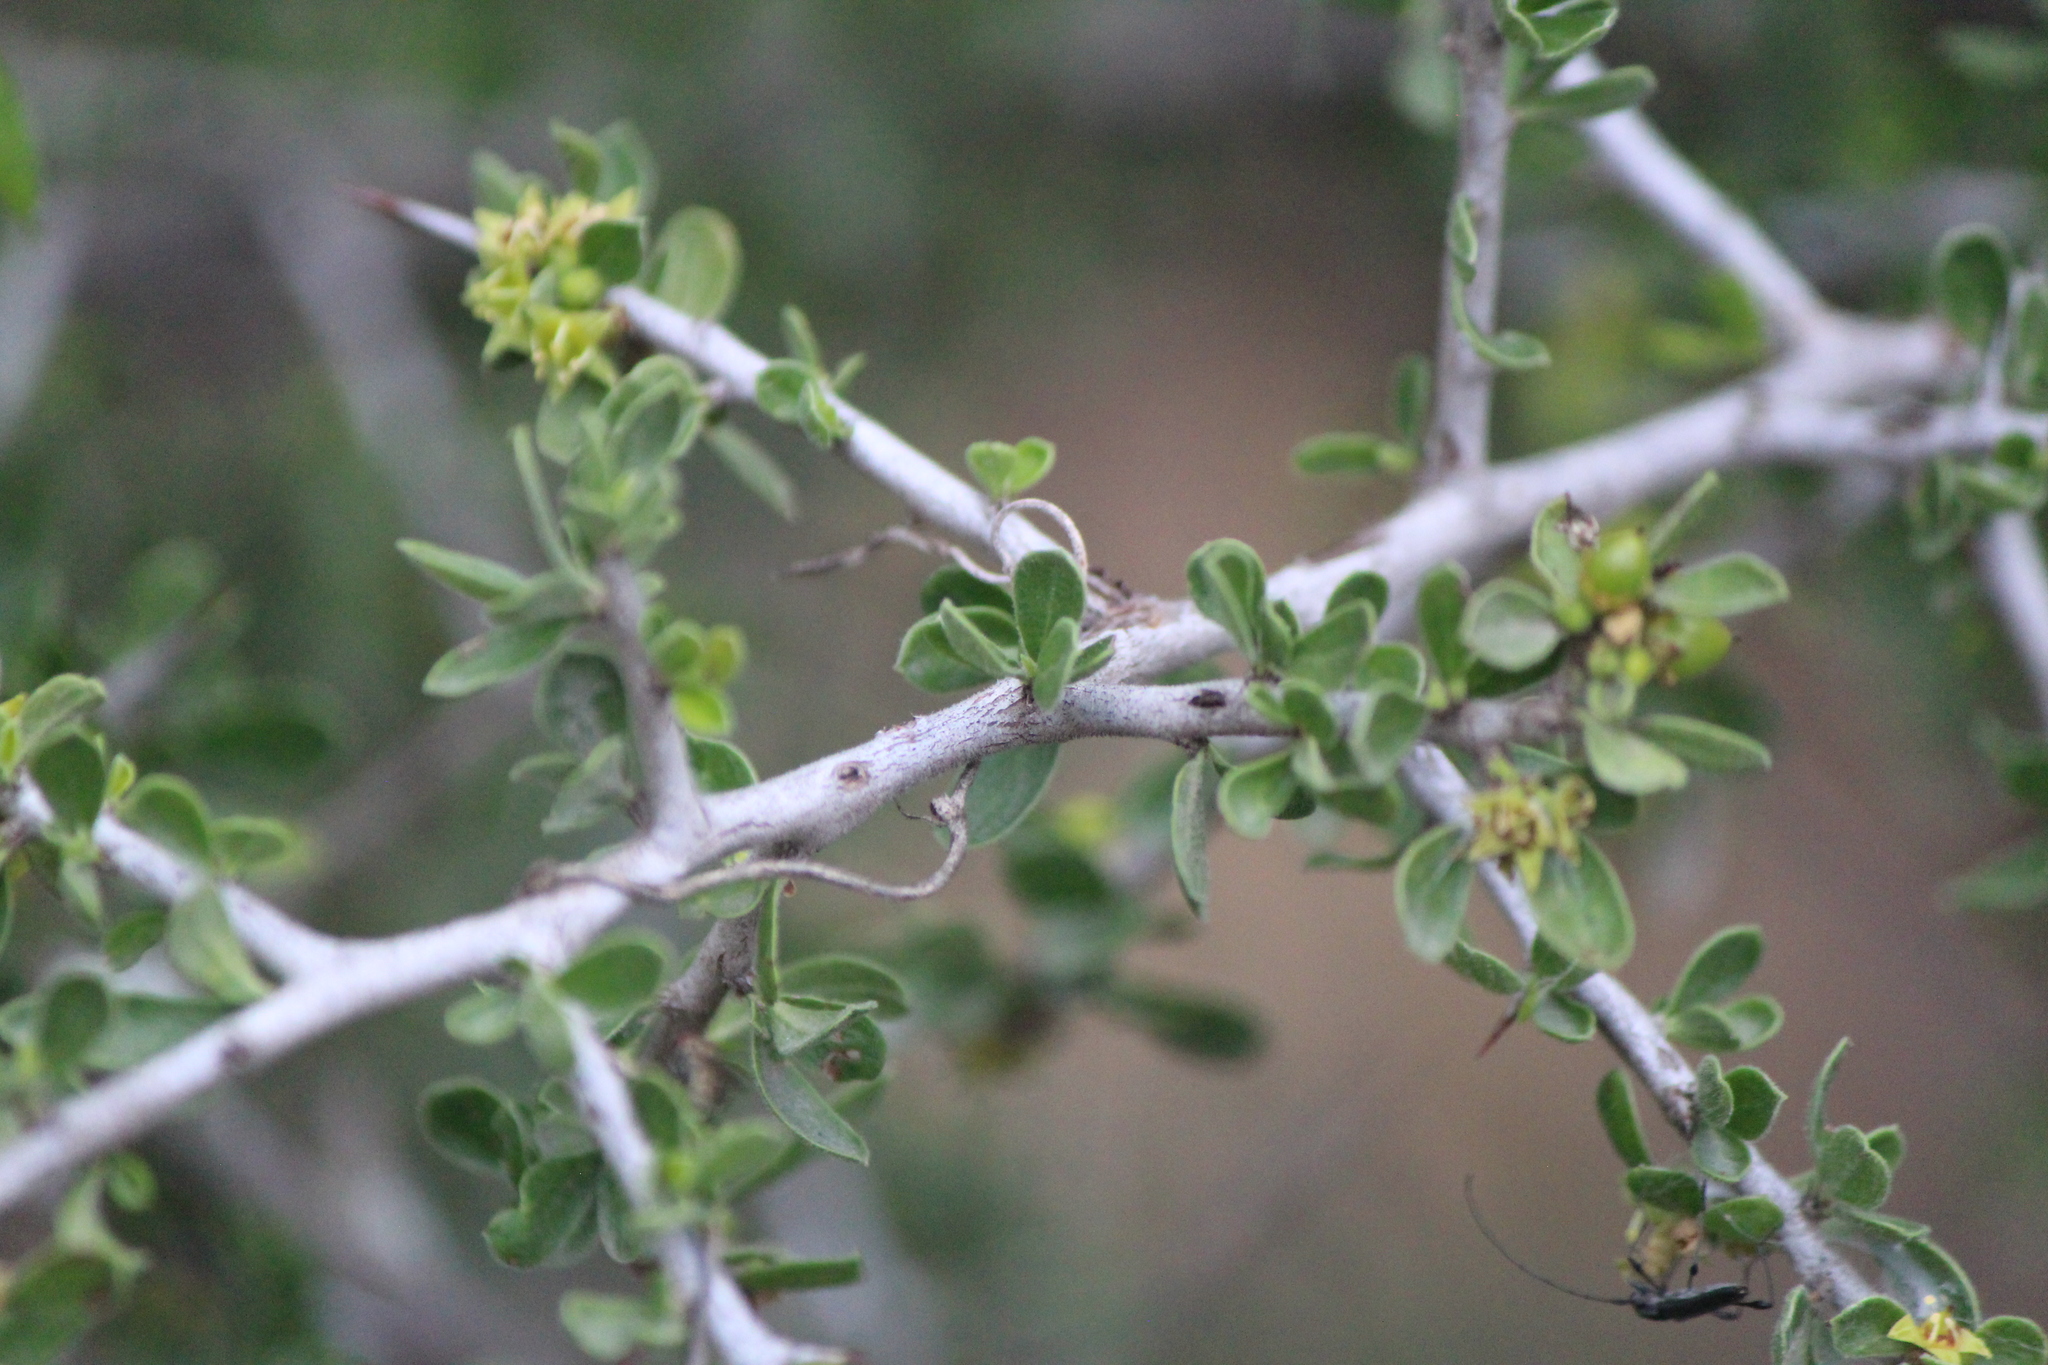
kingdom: Plantae
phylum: Tracheophyta
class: Magnoliopsida
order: Rosales
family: Rhamnaceae
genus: Condalia
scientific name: Condalia mexicana
